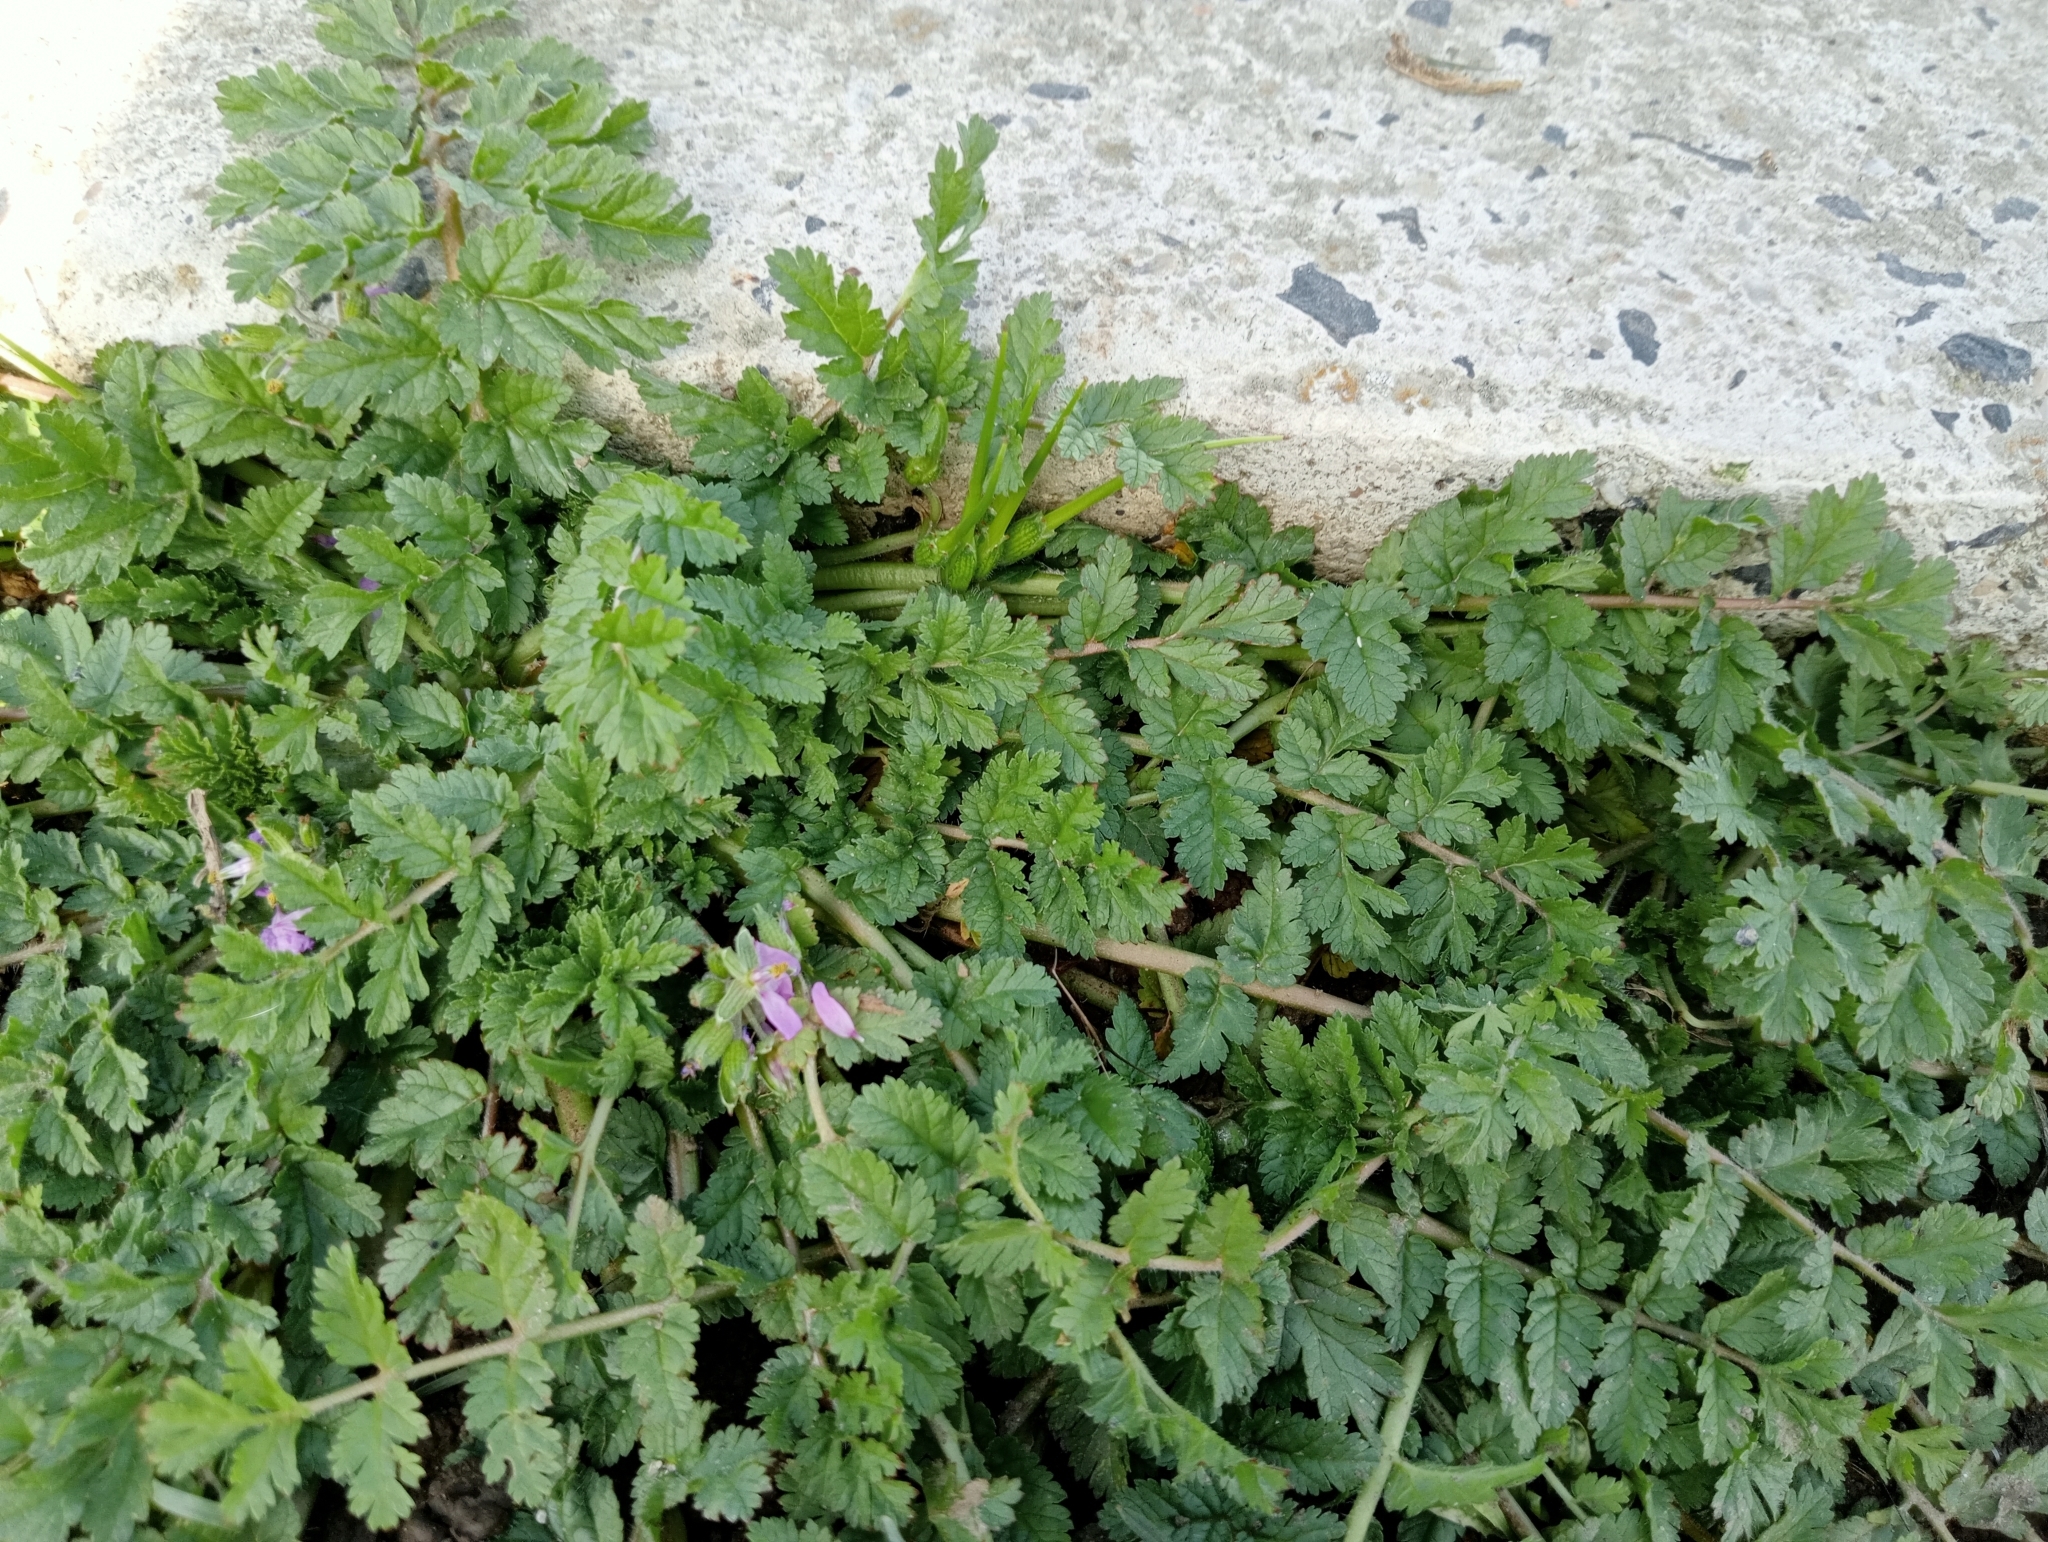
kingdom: Plantae
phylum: Tracheophyta
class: Magnoliopsida
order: Geraniales
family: Geraniaceae
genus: Erodium
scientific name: Erodium moschatum
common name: Musk stork's-bill
